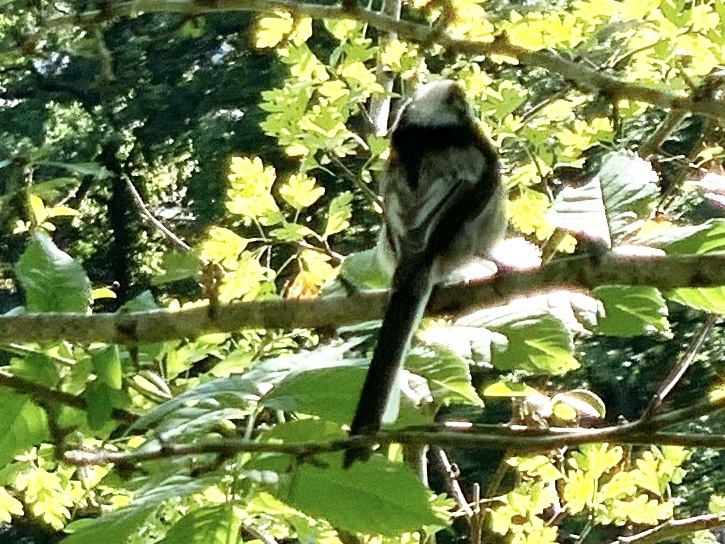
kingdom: Animalia
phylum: Chordata
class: Aves
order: Passeriformes
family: Aegithalidae
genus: Aegithalos
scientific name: Aegithalos caudatus
